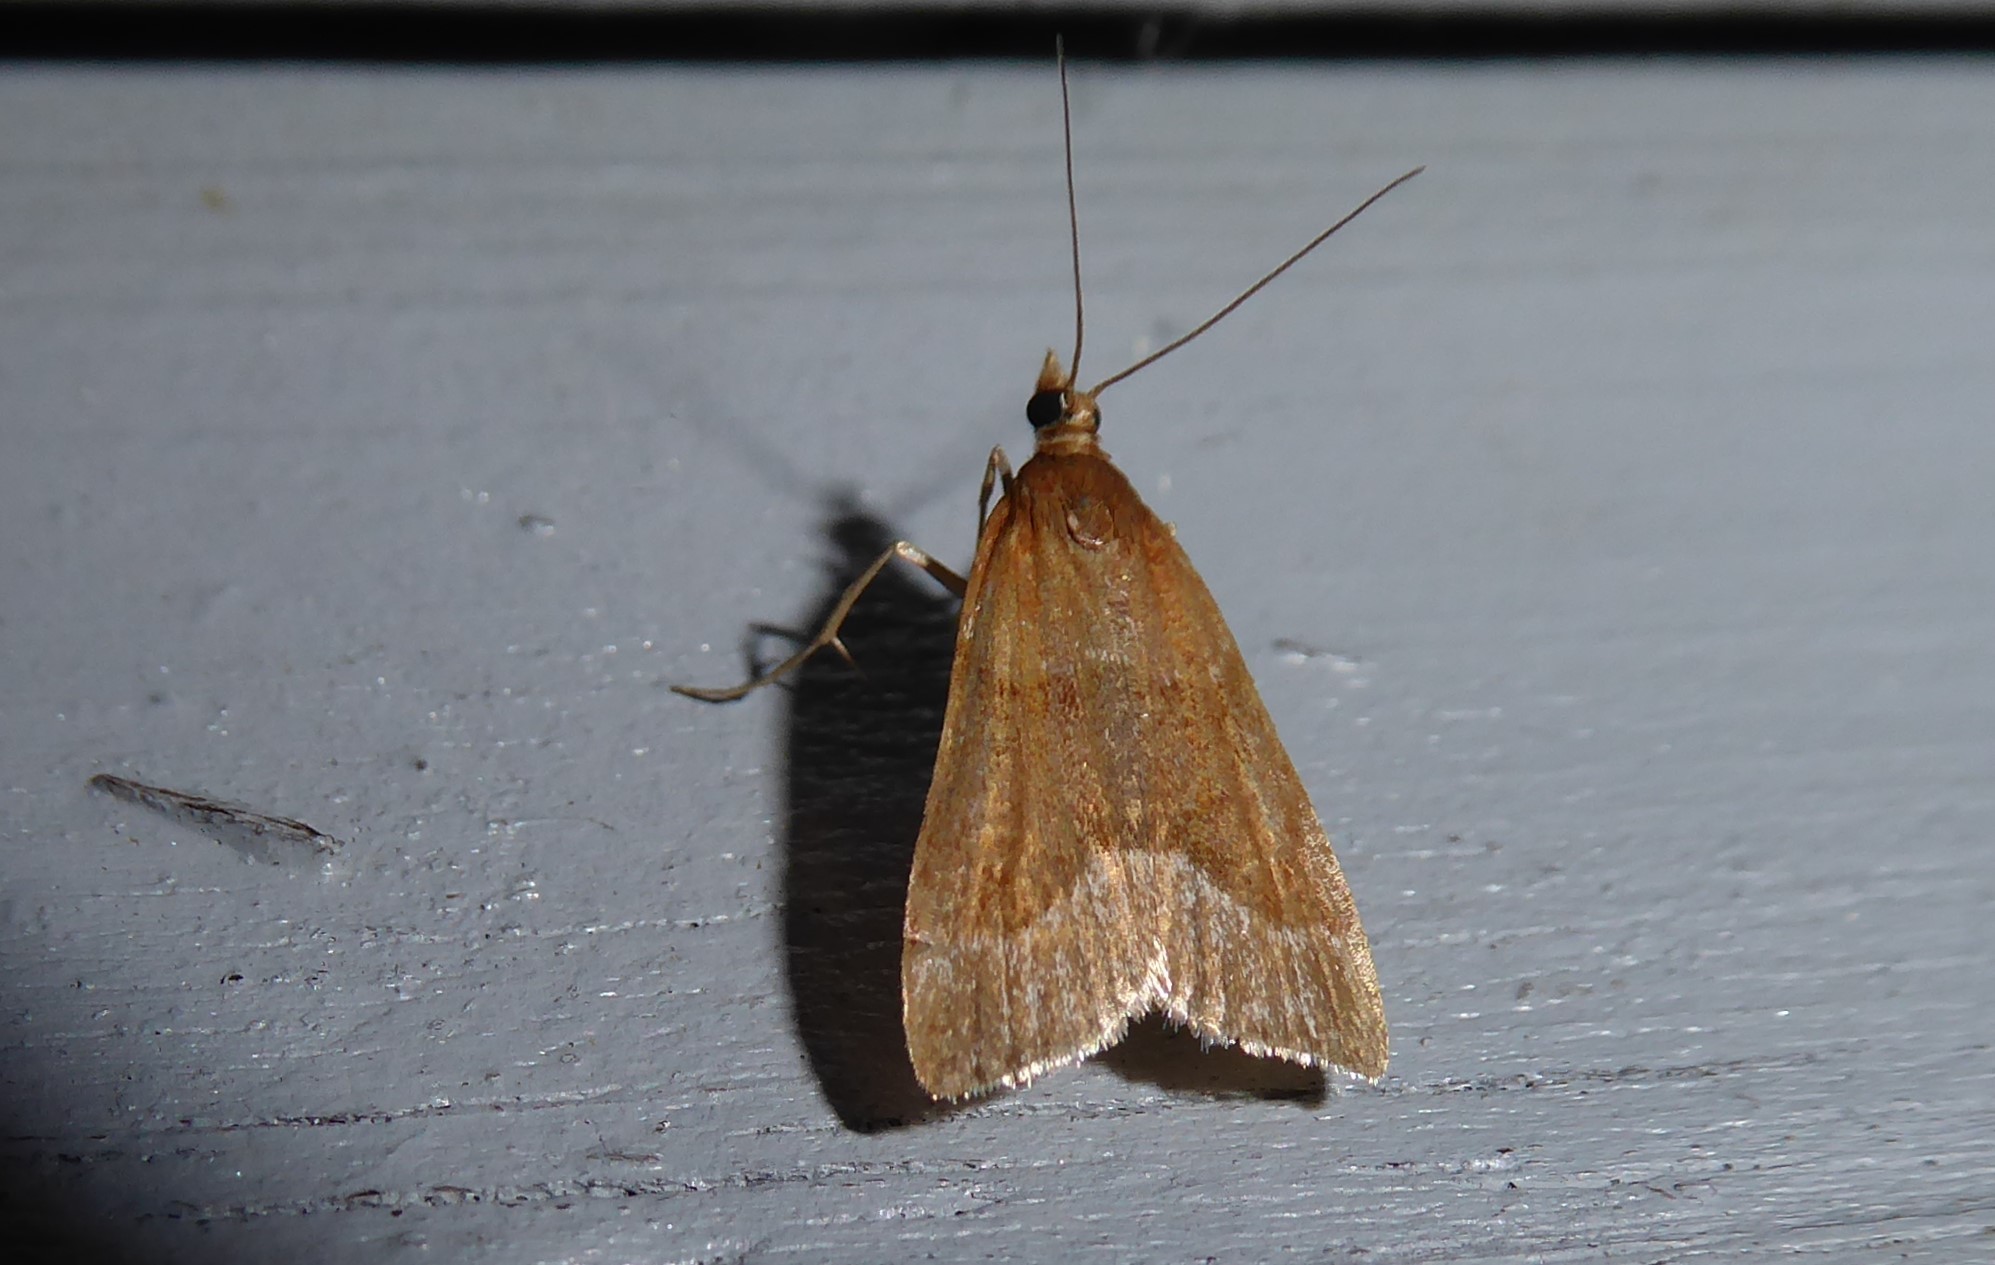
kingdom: Animalia
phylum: Arthropoda
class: Insecta
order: Lepidoptera
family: Crambidae
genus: Eudonia
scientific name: Eudonia feredayi
